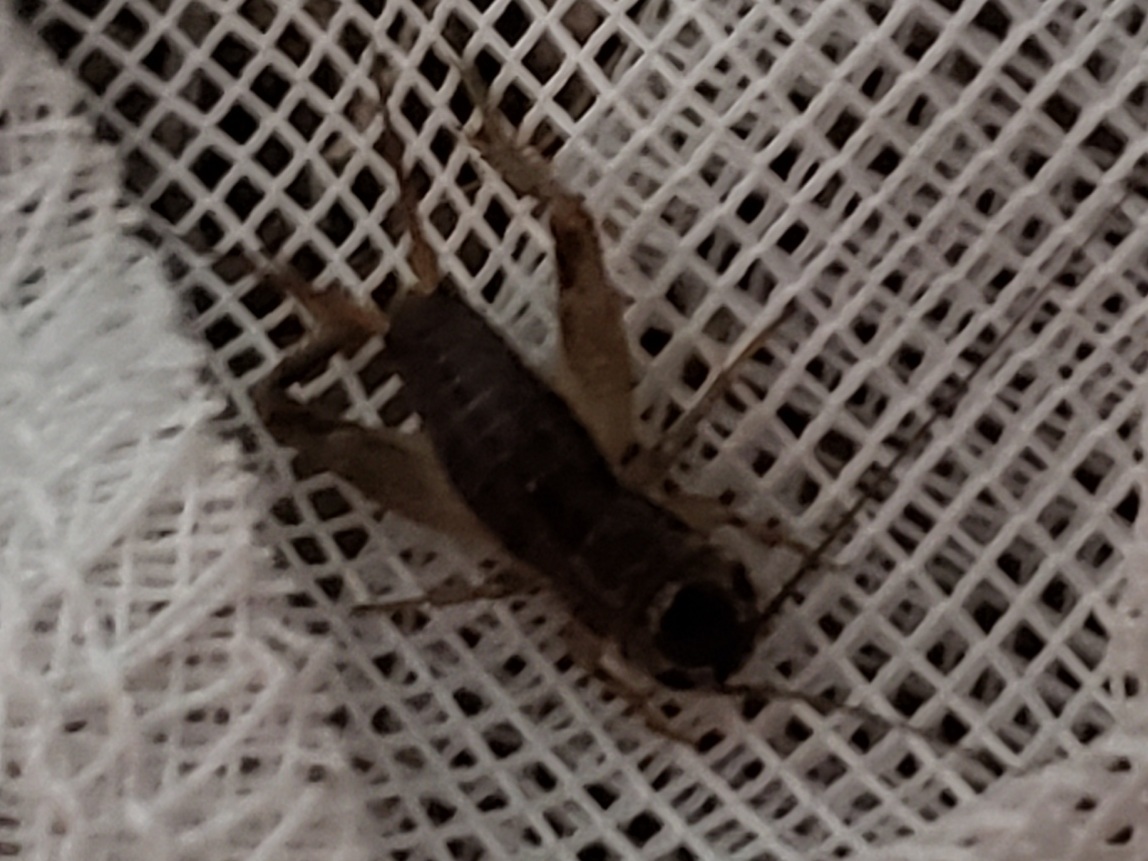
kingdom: Animalia
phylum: Arthropoda
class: Insecta
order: Orthoptera
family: Gryllidae
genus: Miogryllus
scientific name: Miogryllus verticalis
